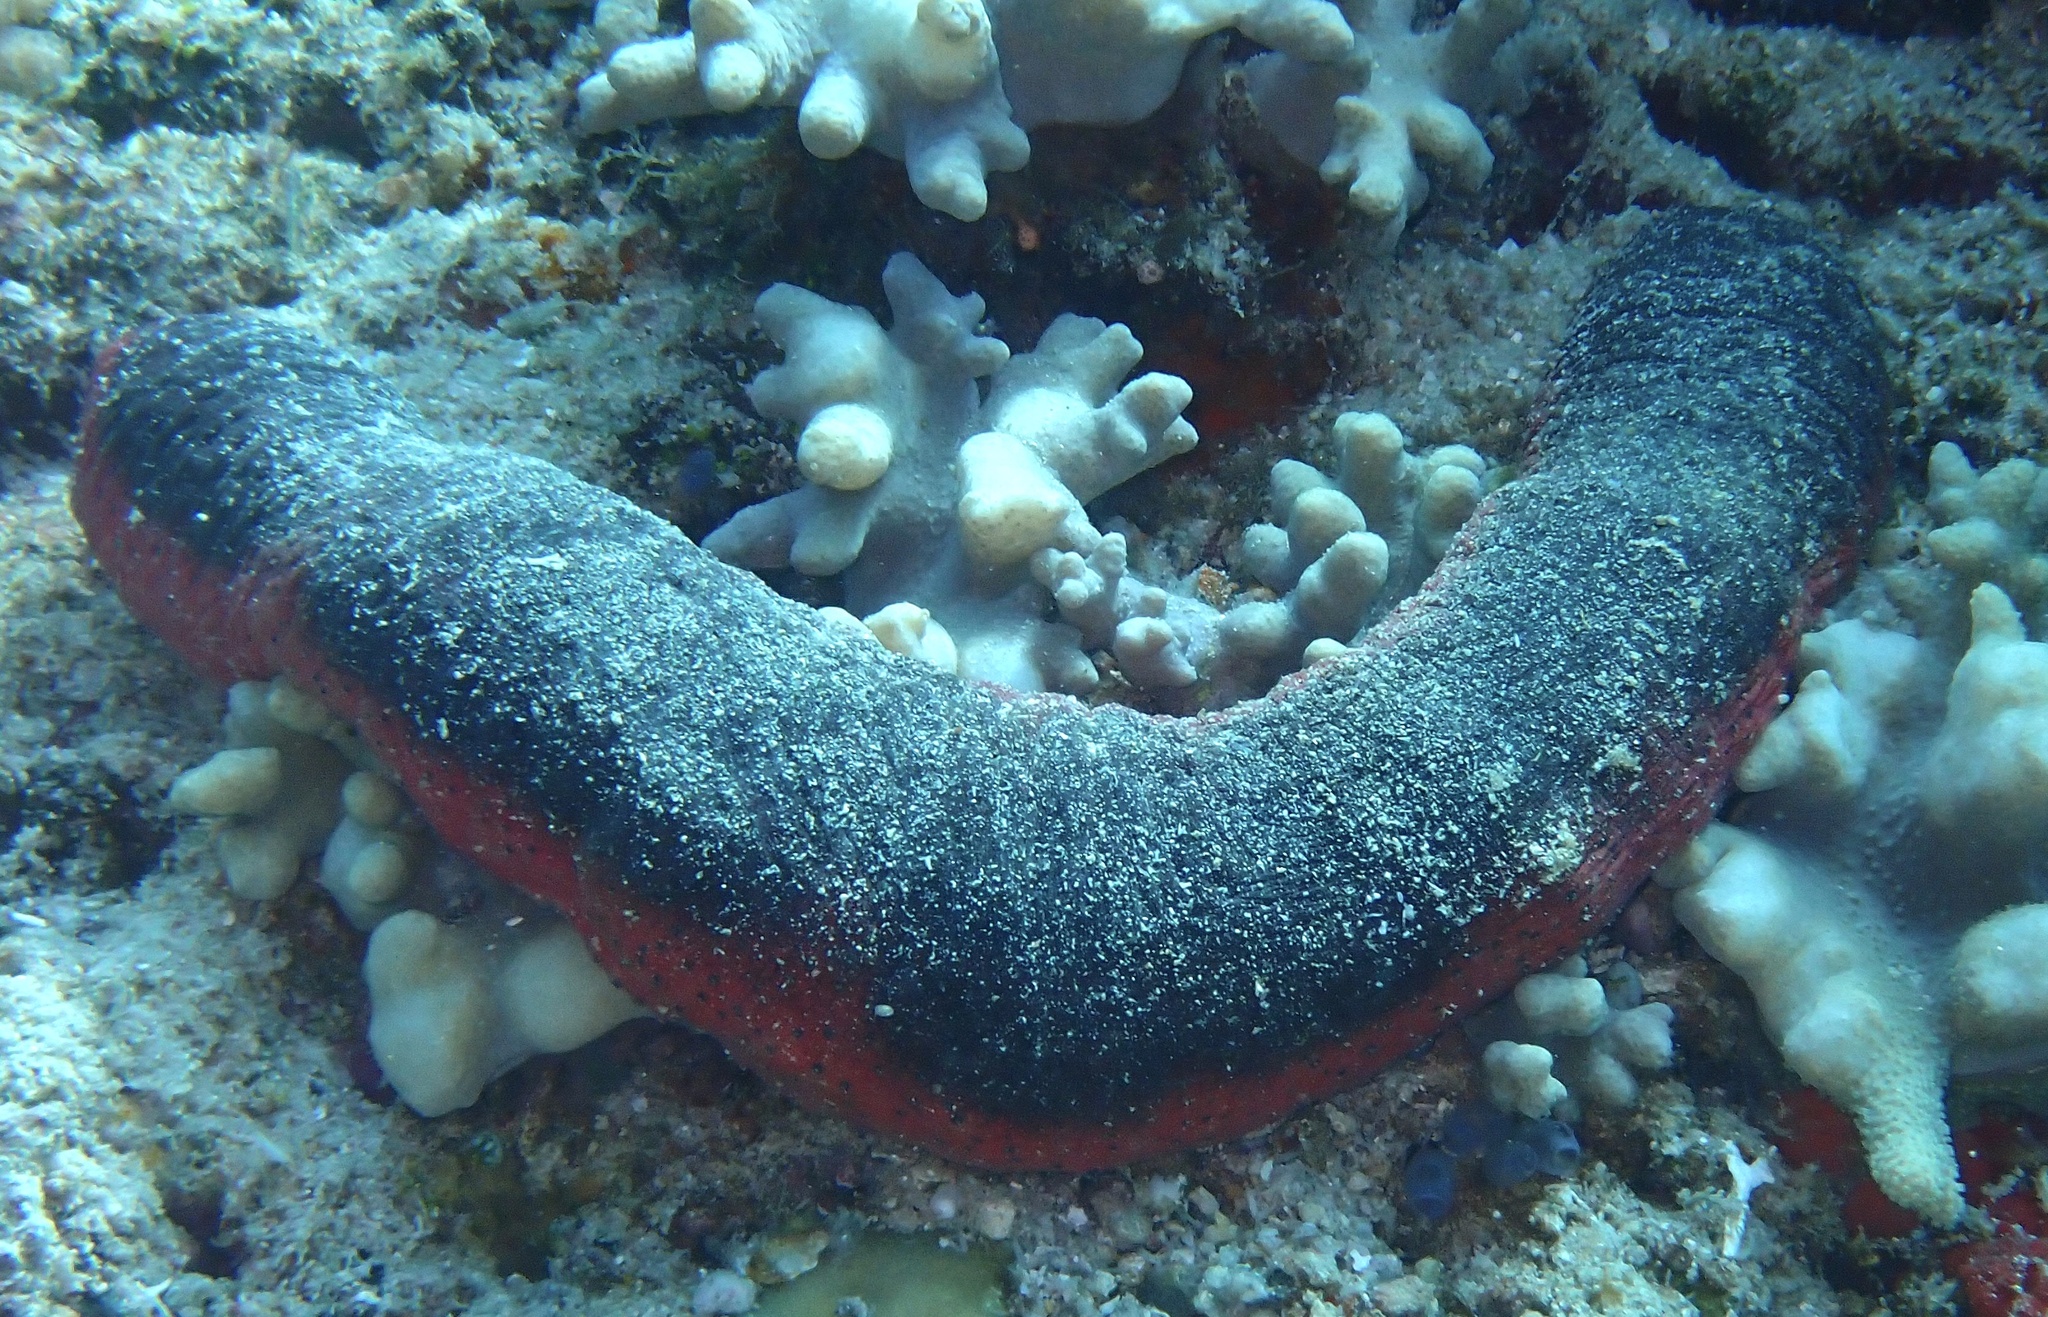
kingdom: Animalia
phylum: Echinodermata
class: Holothuroidea
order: Holothuriida
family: Holothuriidae
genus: Holothuria
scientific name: Holothuria edulis
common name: Pinkfish
